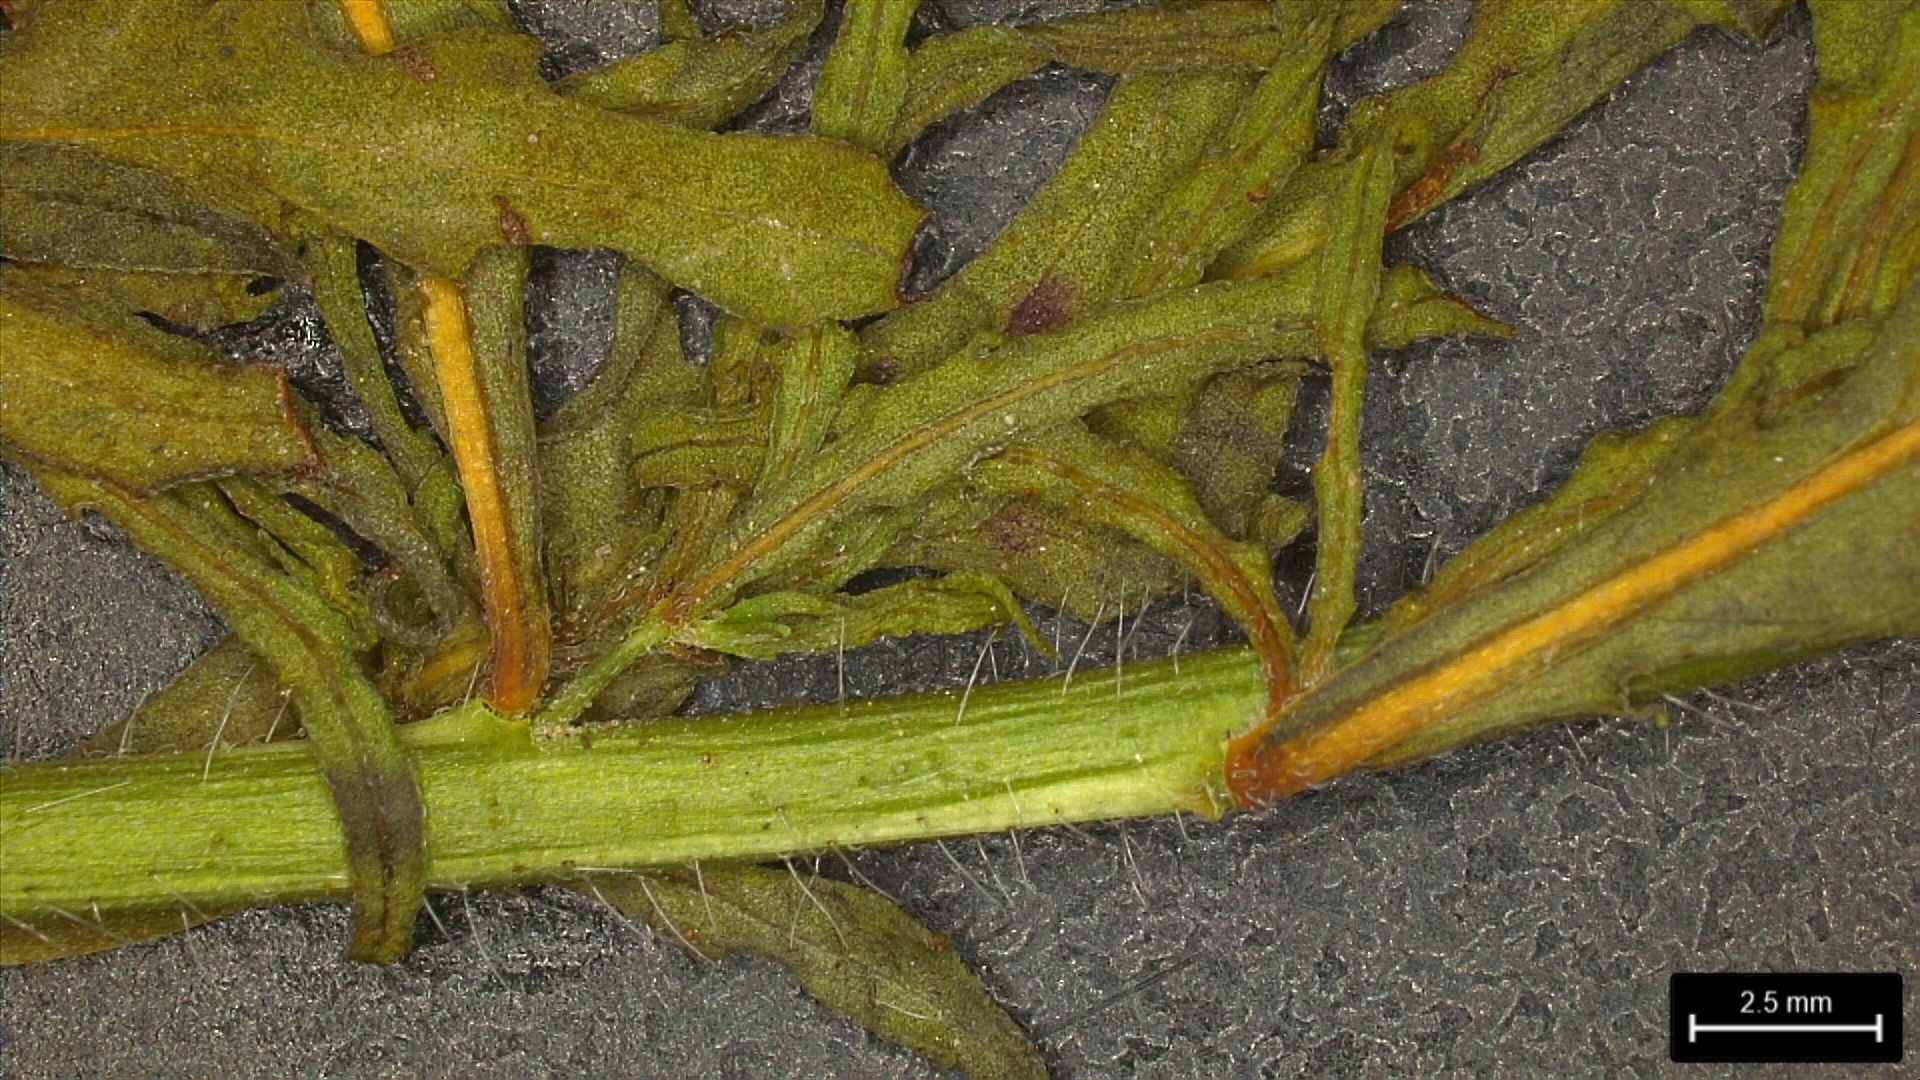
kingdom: Plantae
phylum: Tracheophyta
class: Magnoliopsida
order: Myrtales
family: Onagraceae
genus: Oenothera
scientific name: Oenothera sinuosa
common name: Wavyleaf beeblossom
